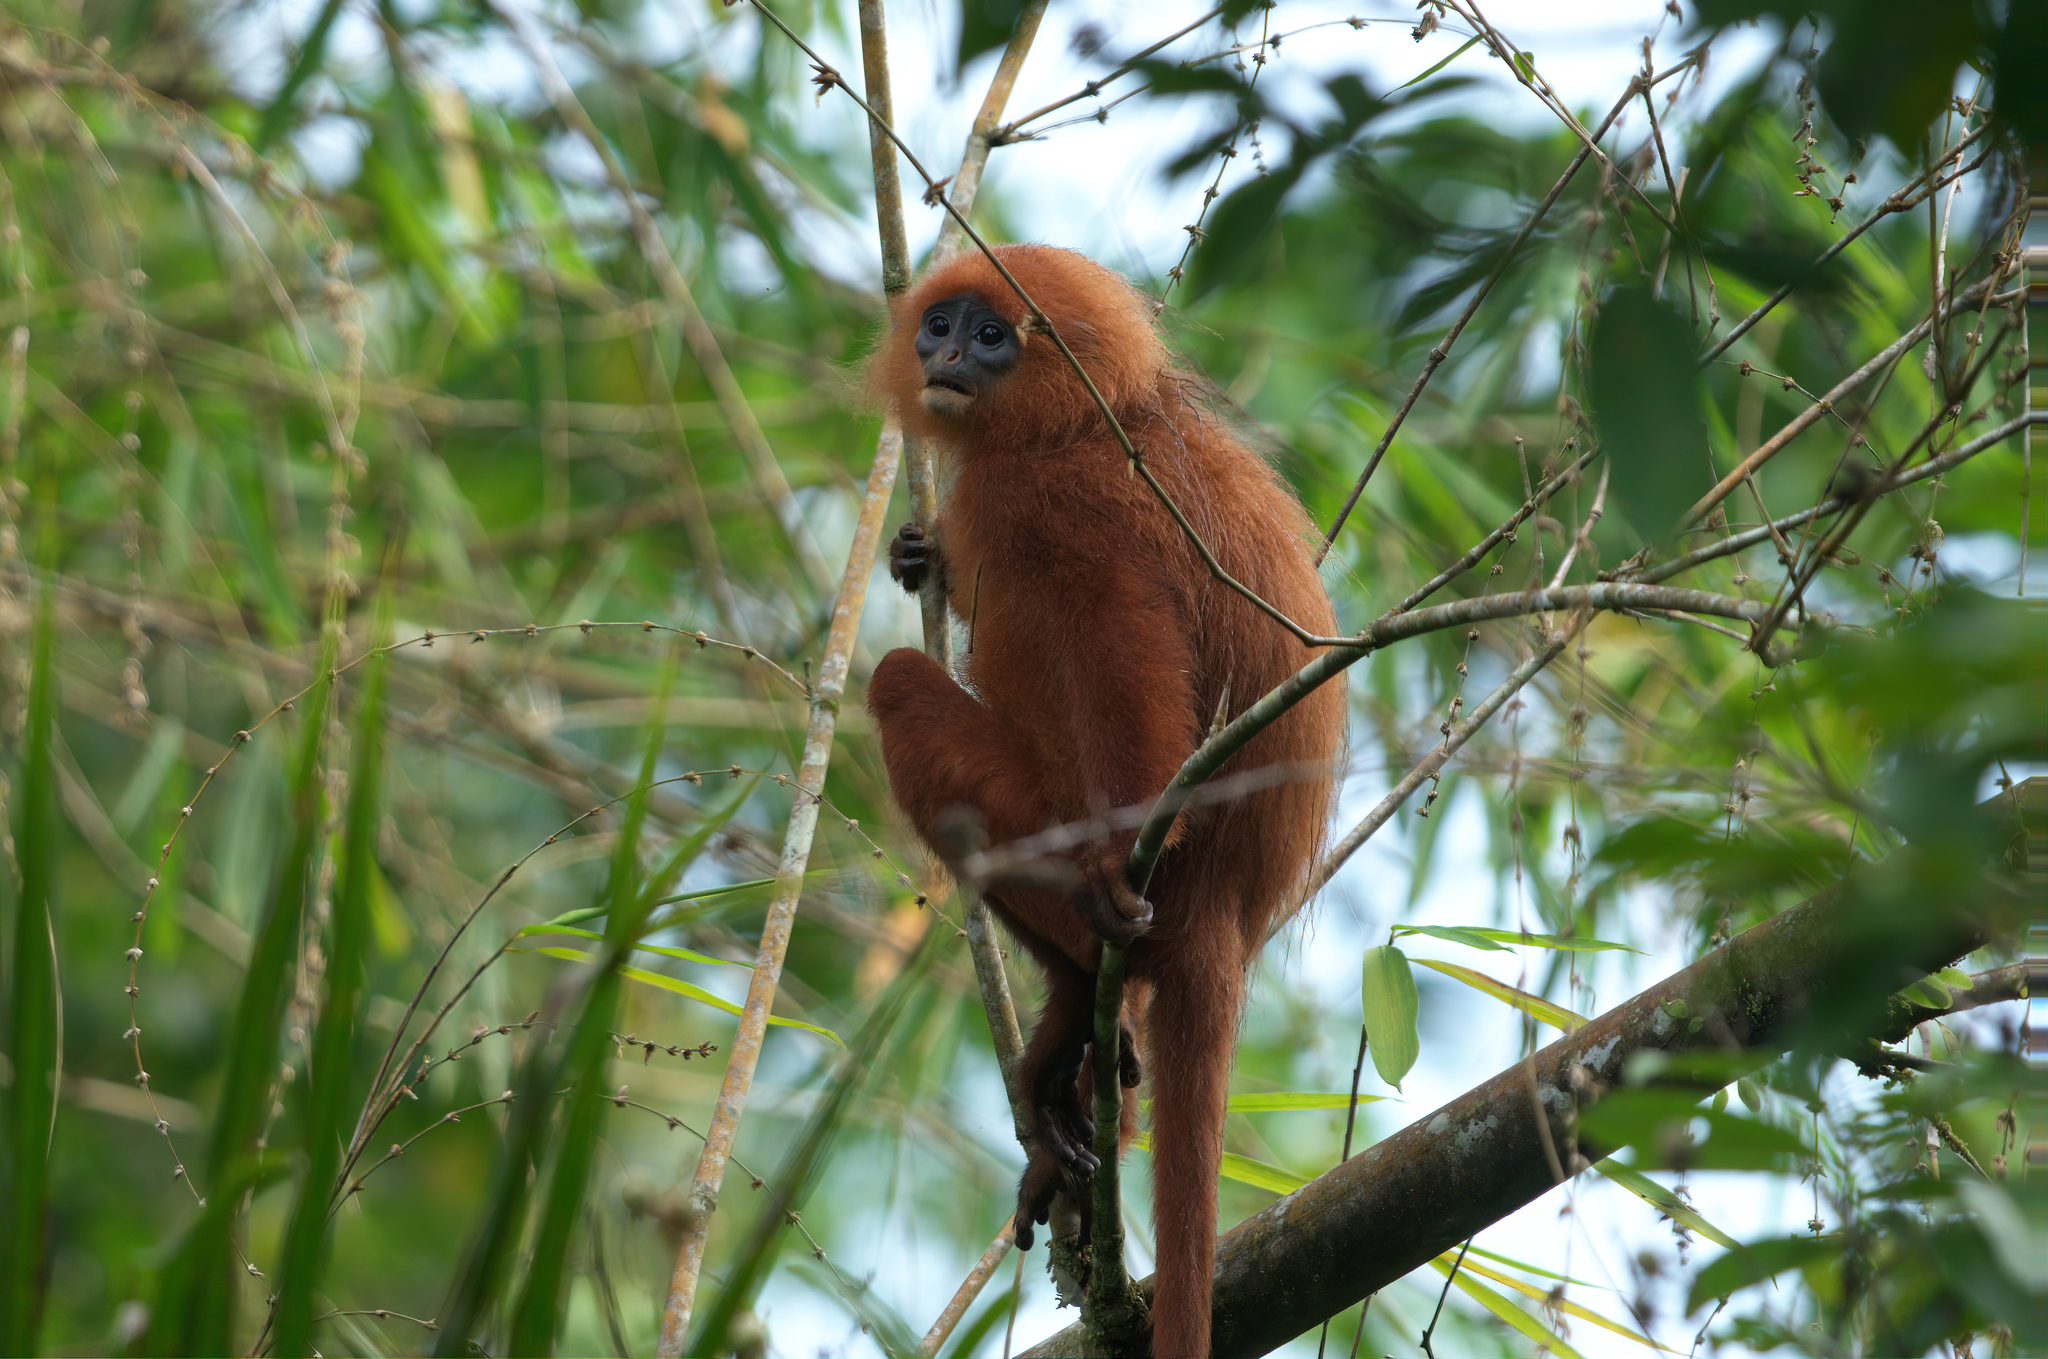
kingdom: Animalia
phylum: Chordata
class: Mammalia
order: Primates
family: Cercopithecidae
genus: Presbytis
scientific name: Presbytis rubicunda
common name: Maroon leaf monkey
